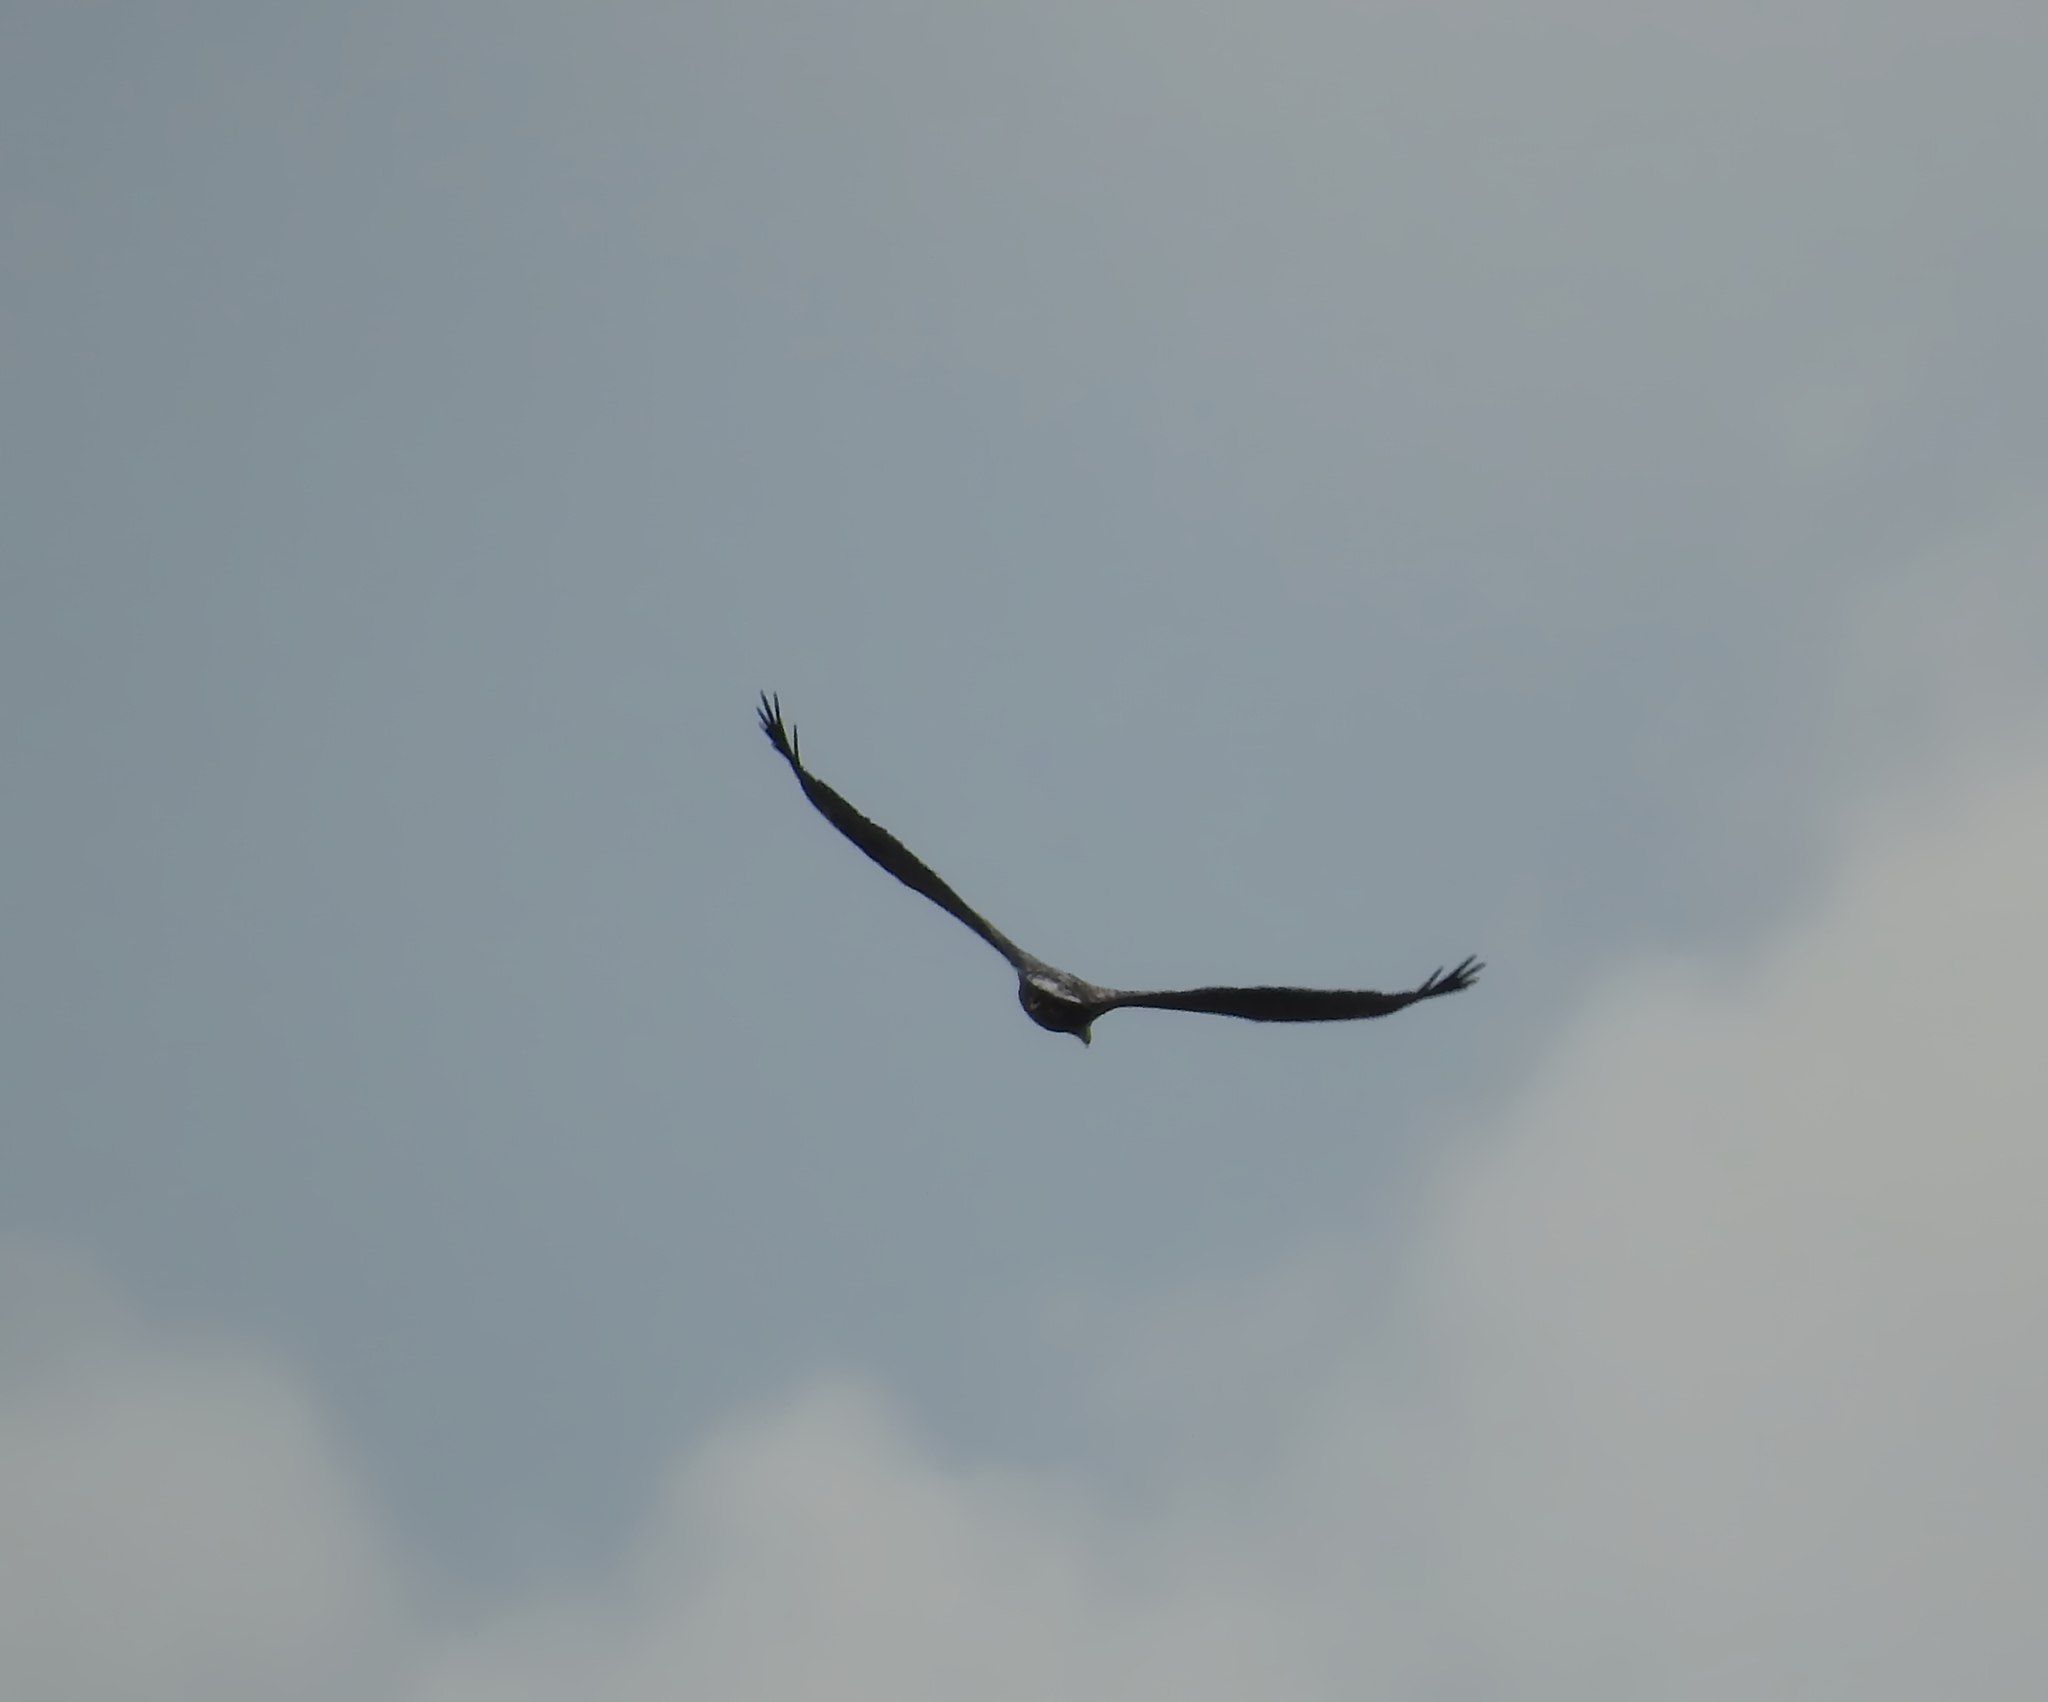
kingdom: Animalia
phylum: Chordata
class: Aves
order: Accipitriformes
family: Accipitridae
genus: Haliaeetus
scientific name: Haliaeetus albicilla
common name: White-tailed eagle
